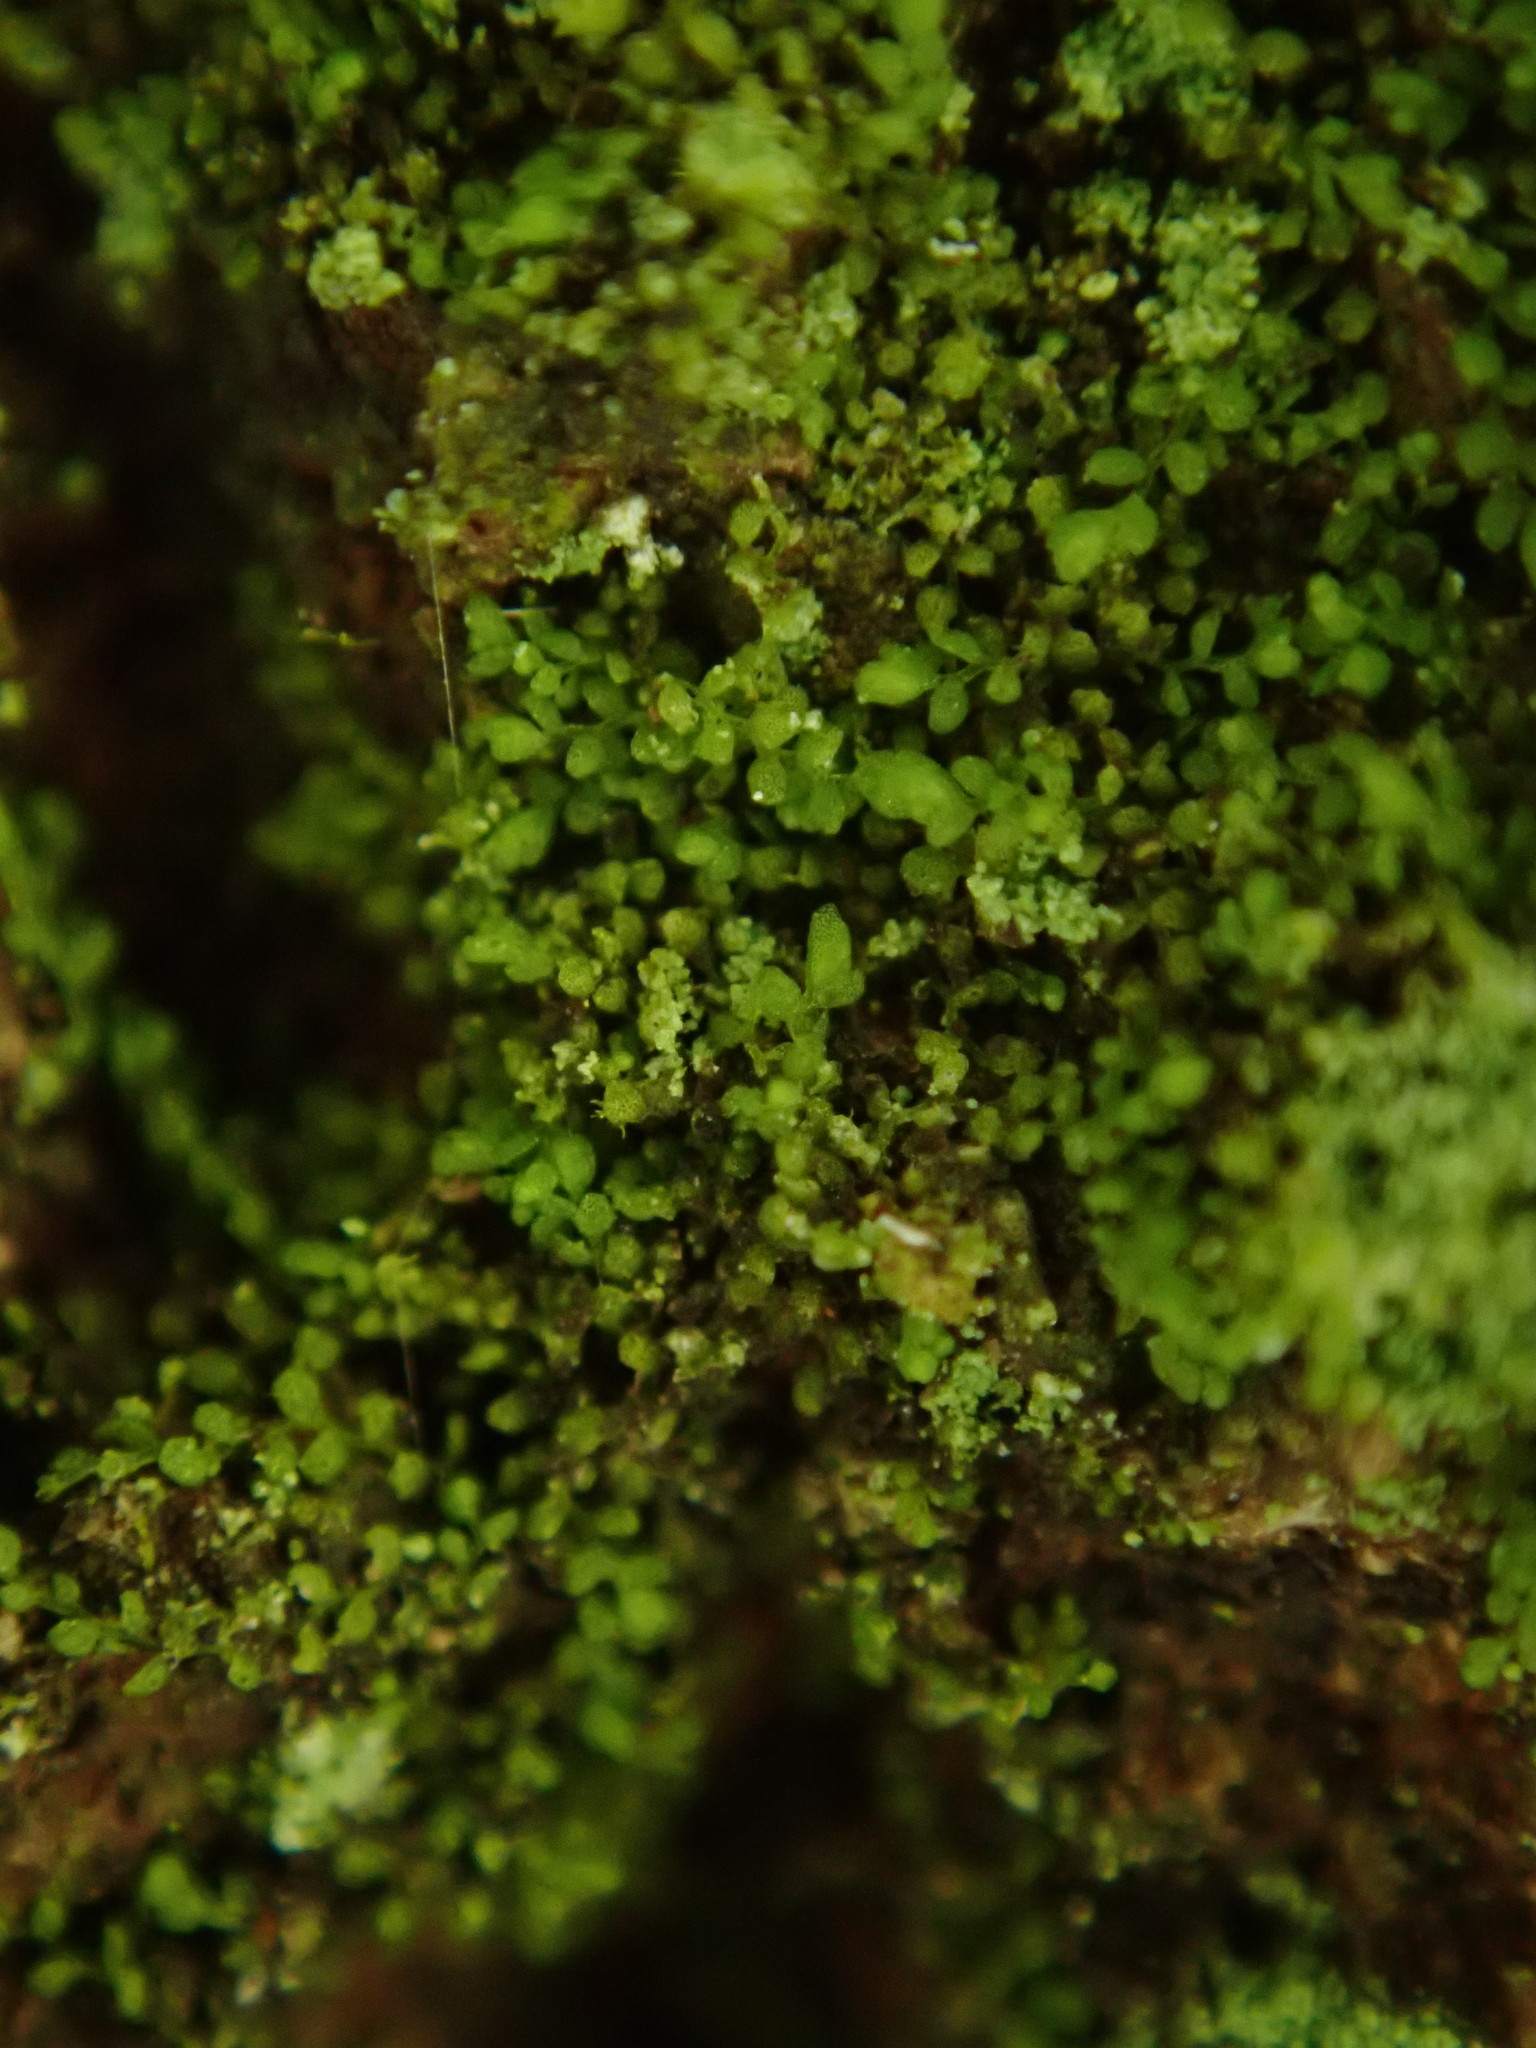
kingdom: Plantae
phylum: Marchantiophyta
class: Jungermanniopsida
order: Porellales
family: Lejeuneaceae
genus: Myriocoleopsis
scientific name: Myriocoleopsis minutissima
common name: Minute pouncewort
